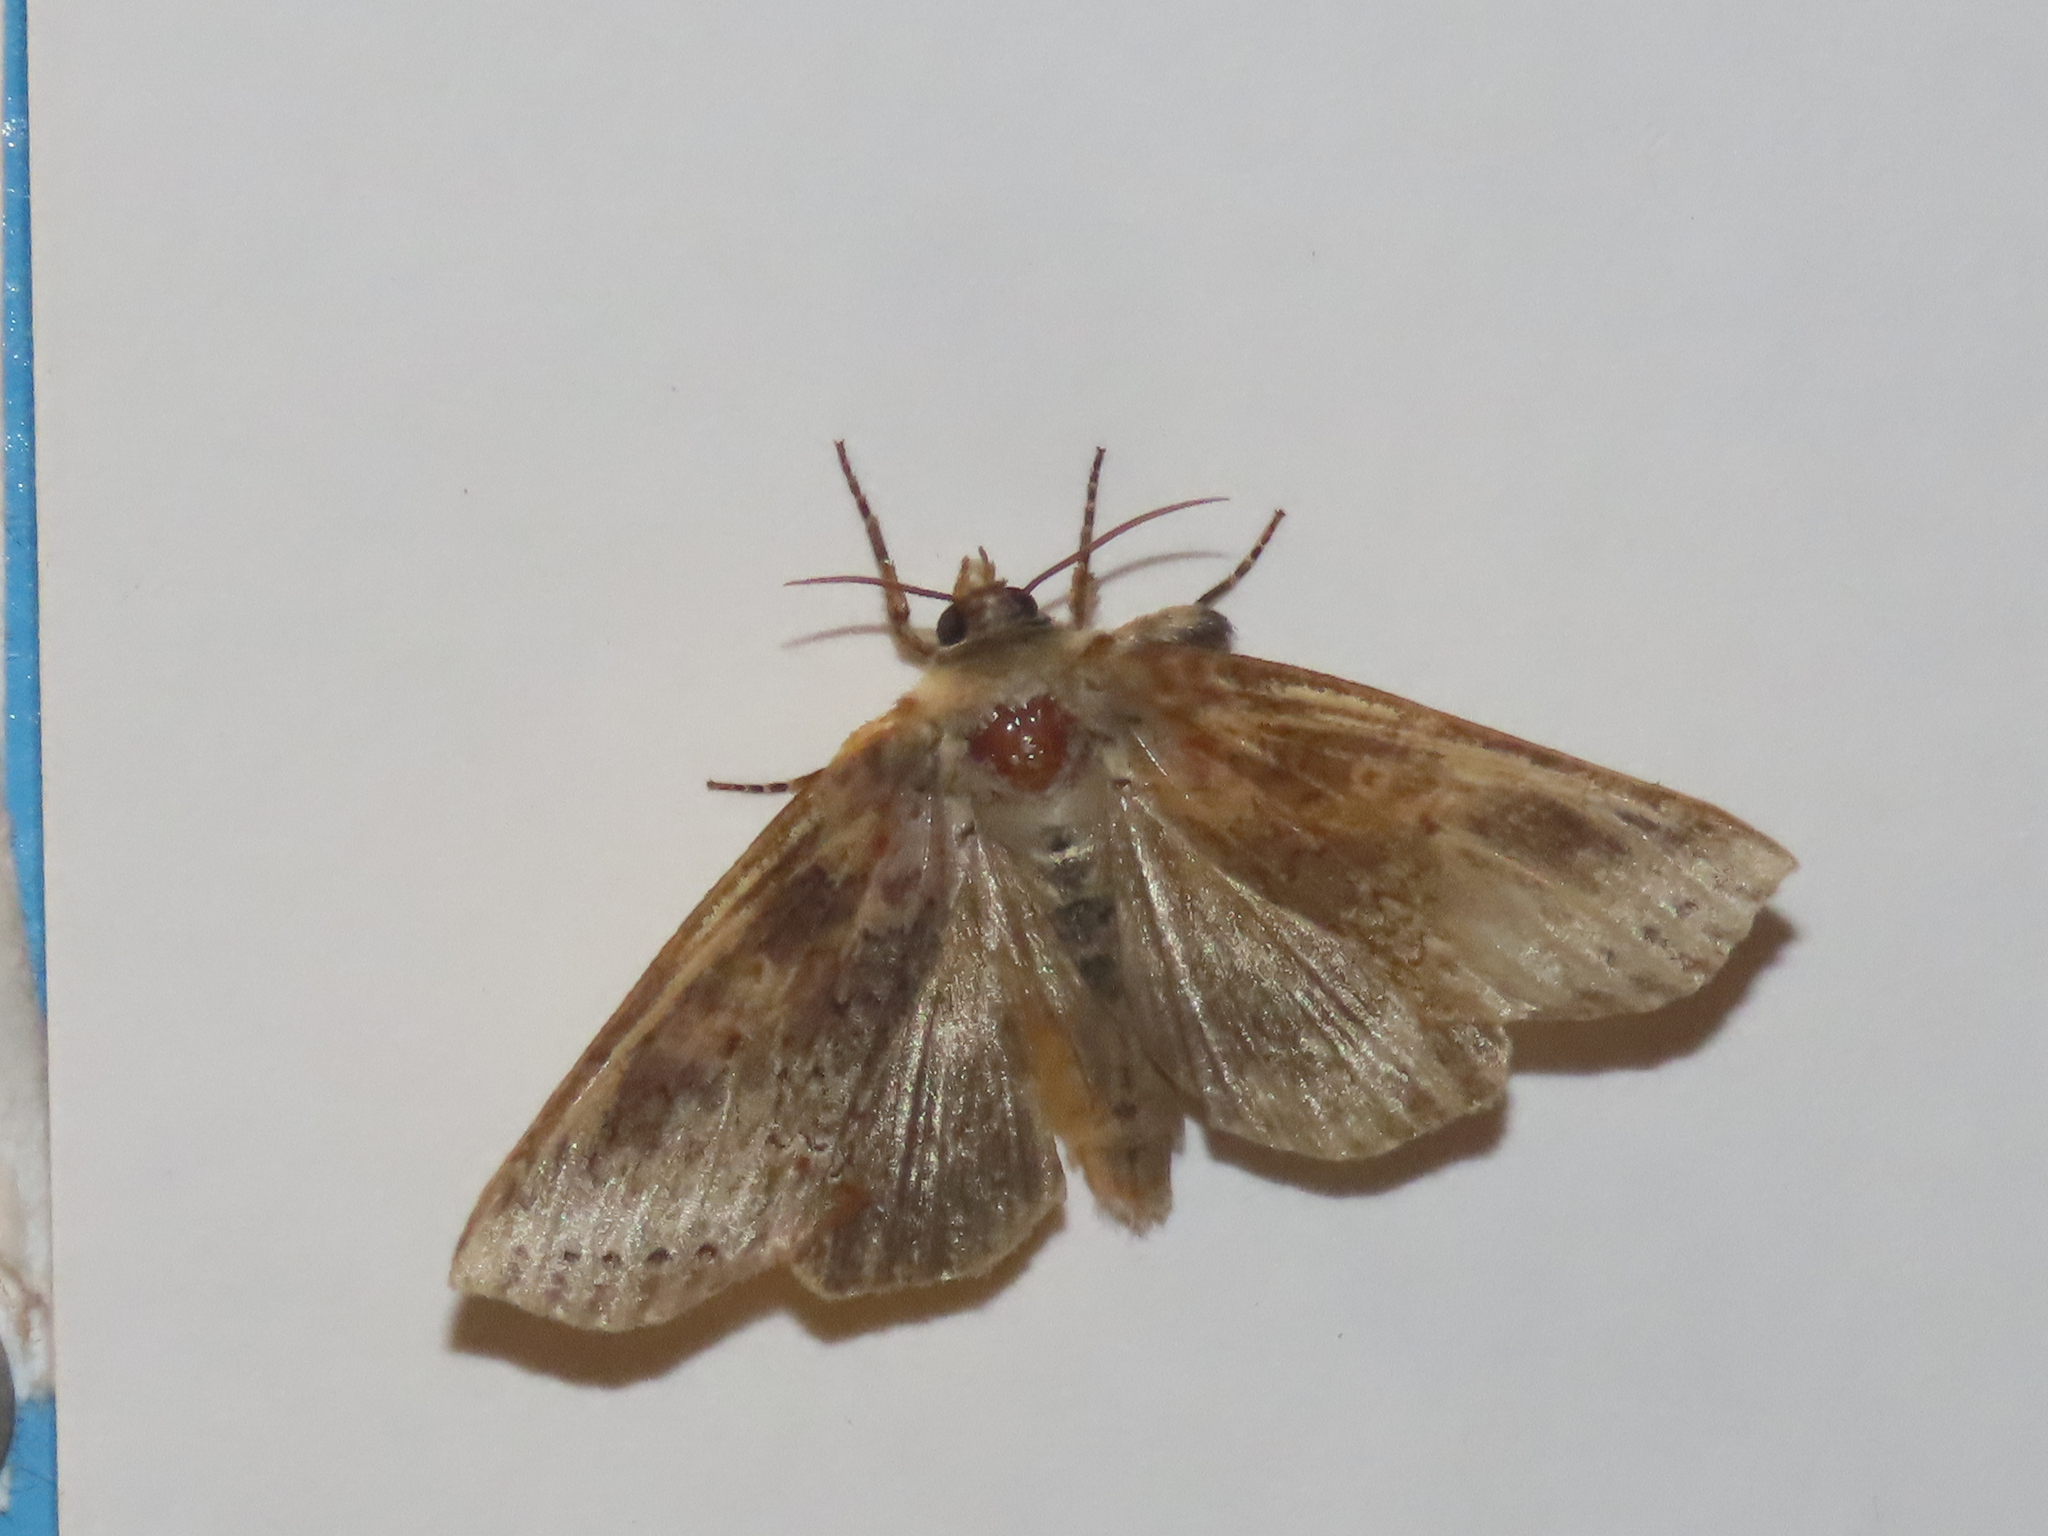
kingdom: Animalia
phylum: Arthropoda
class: Insecta
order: Lepidoptera
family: Drepanidae
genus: Pseudothyatira
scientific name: Pseudothyatira cymatophoroides
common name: Tufted thyatirid moth
